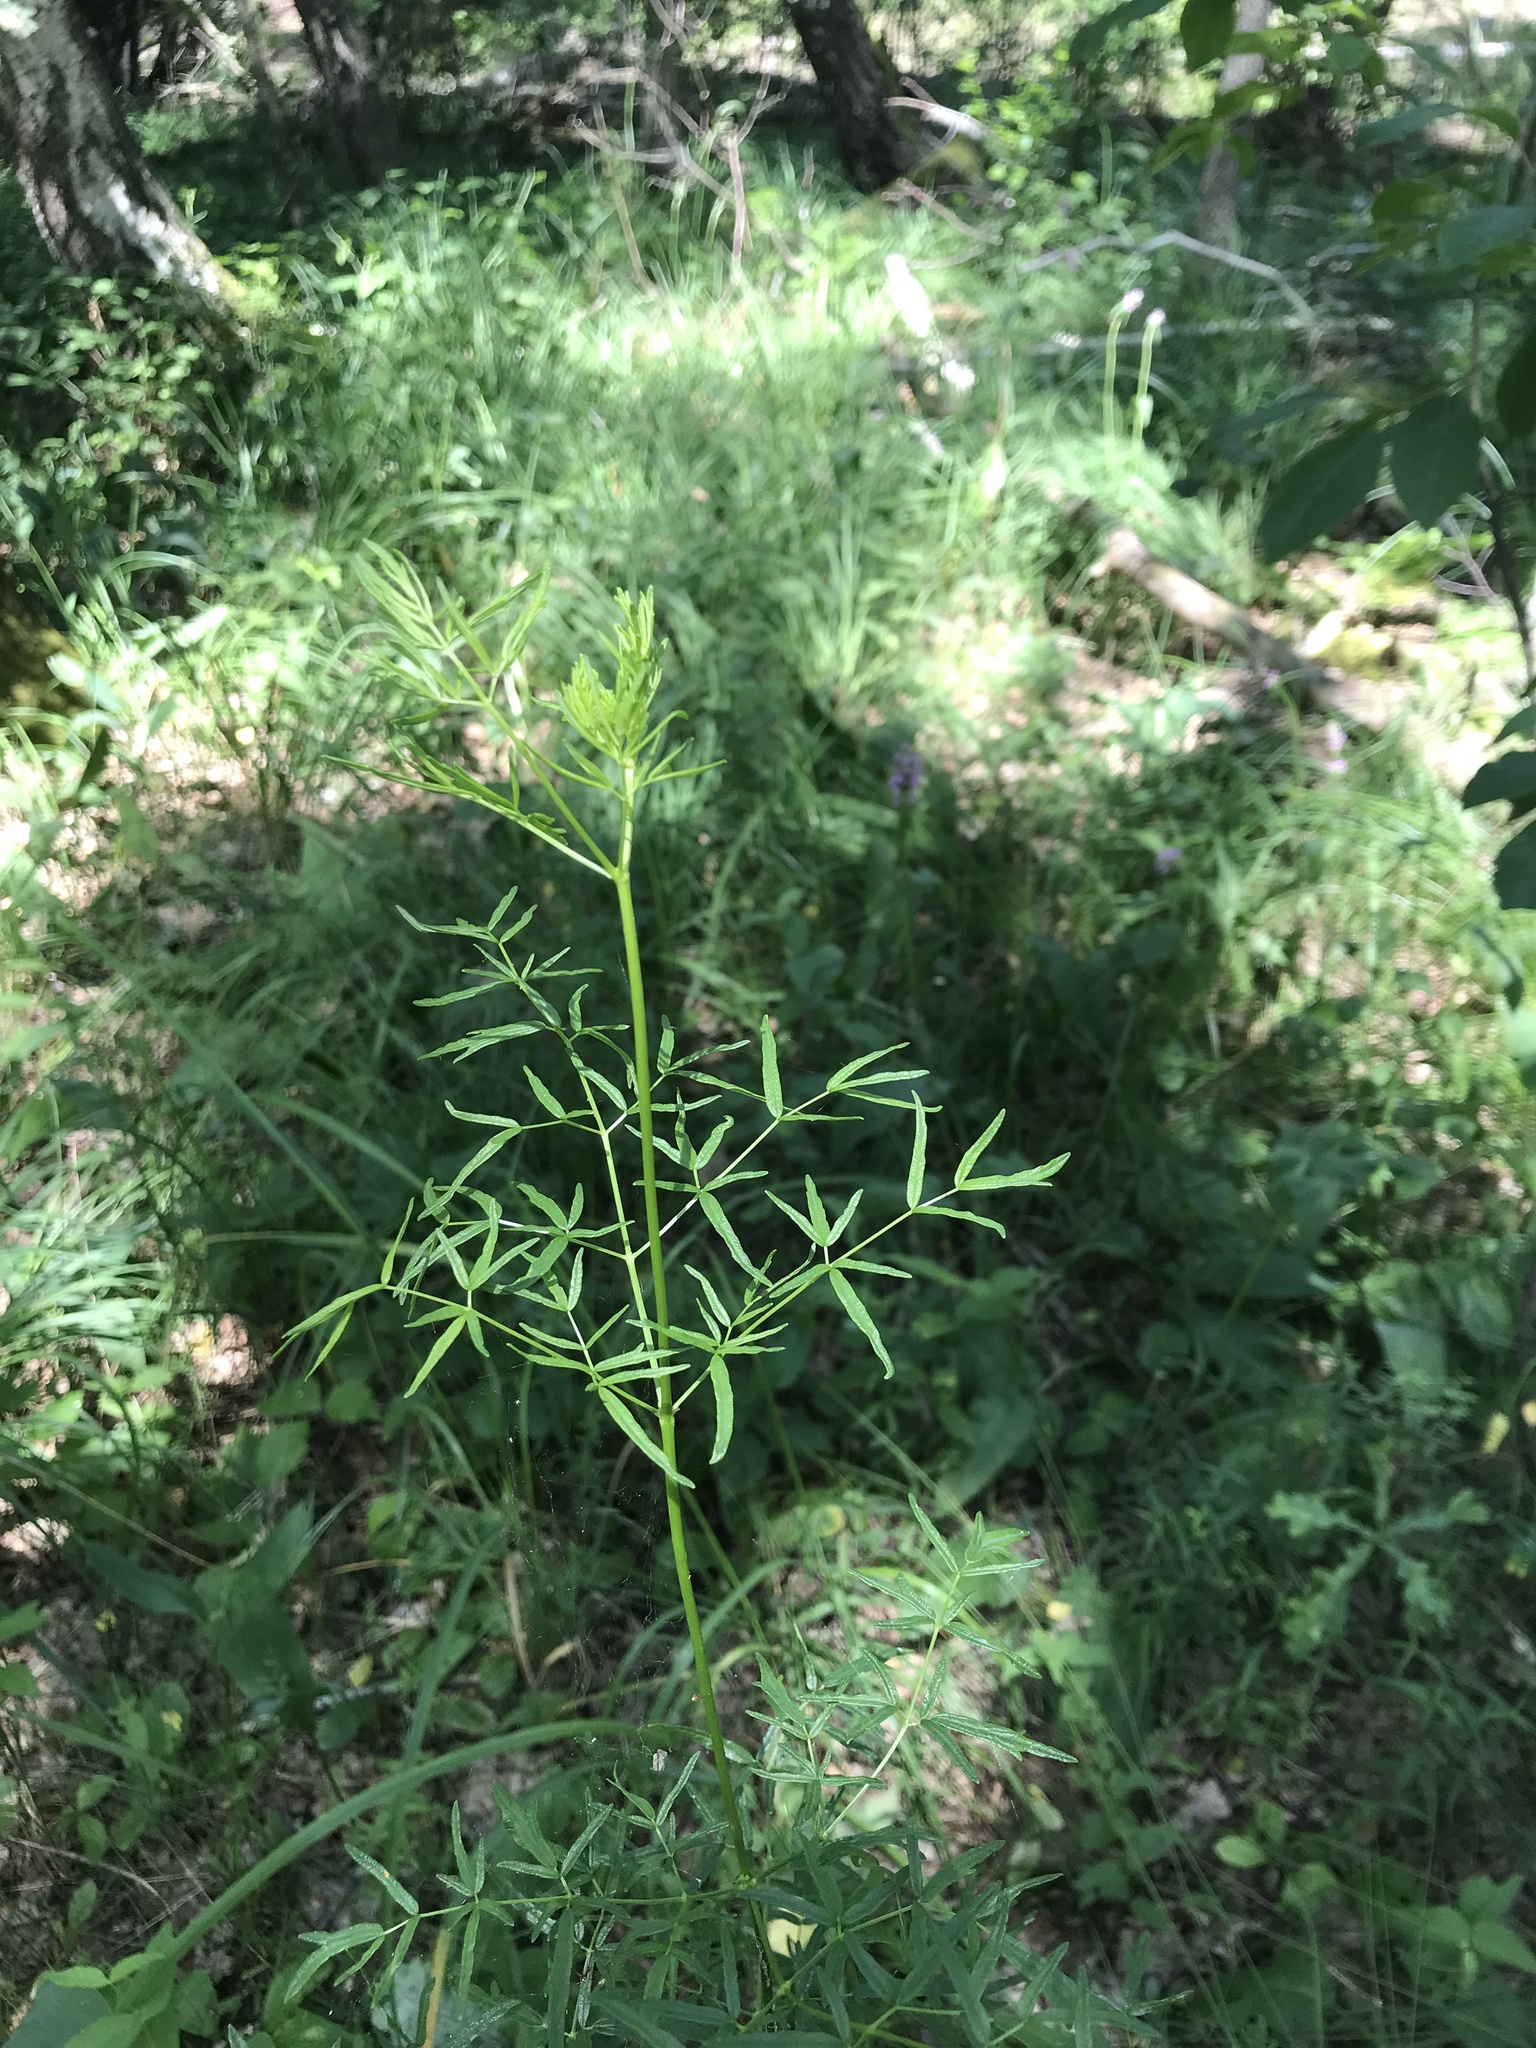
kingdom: Plantae
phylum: Tracheophyta
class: Magnoliopsida
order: Ranunculales
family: Ranunculaceae
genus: Thalictrum
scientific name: Thalictrum lucidum
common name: Shining meadow-rue
